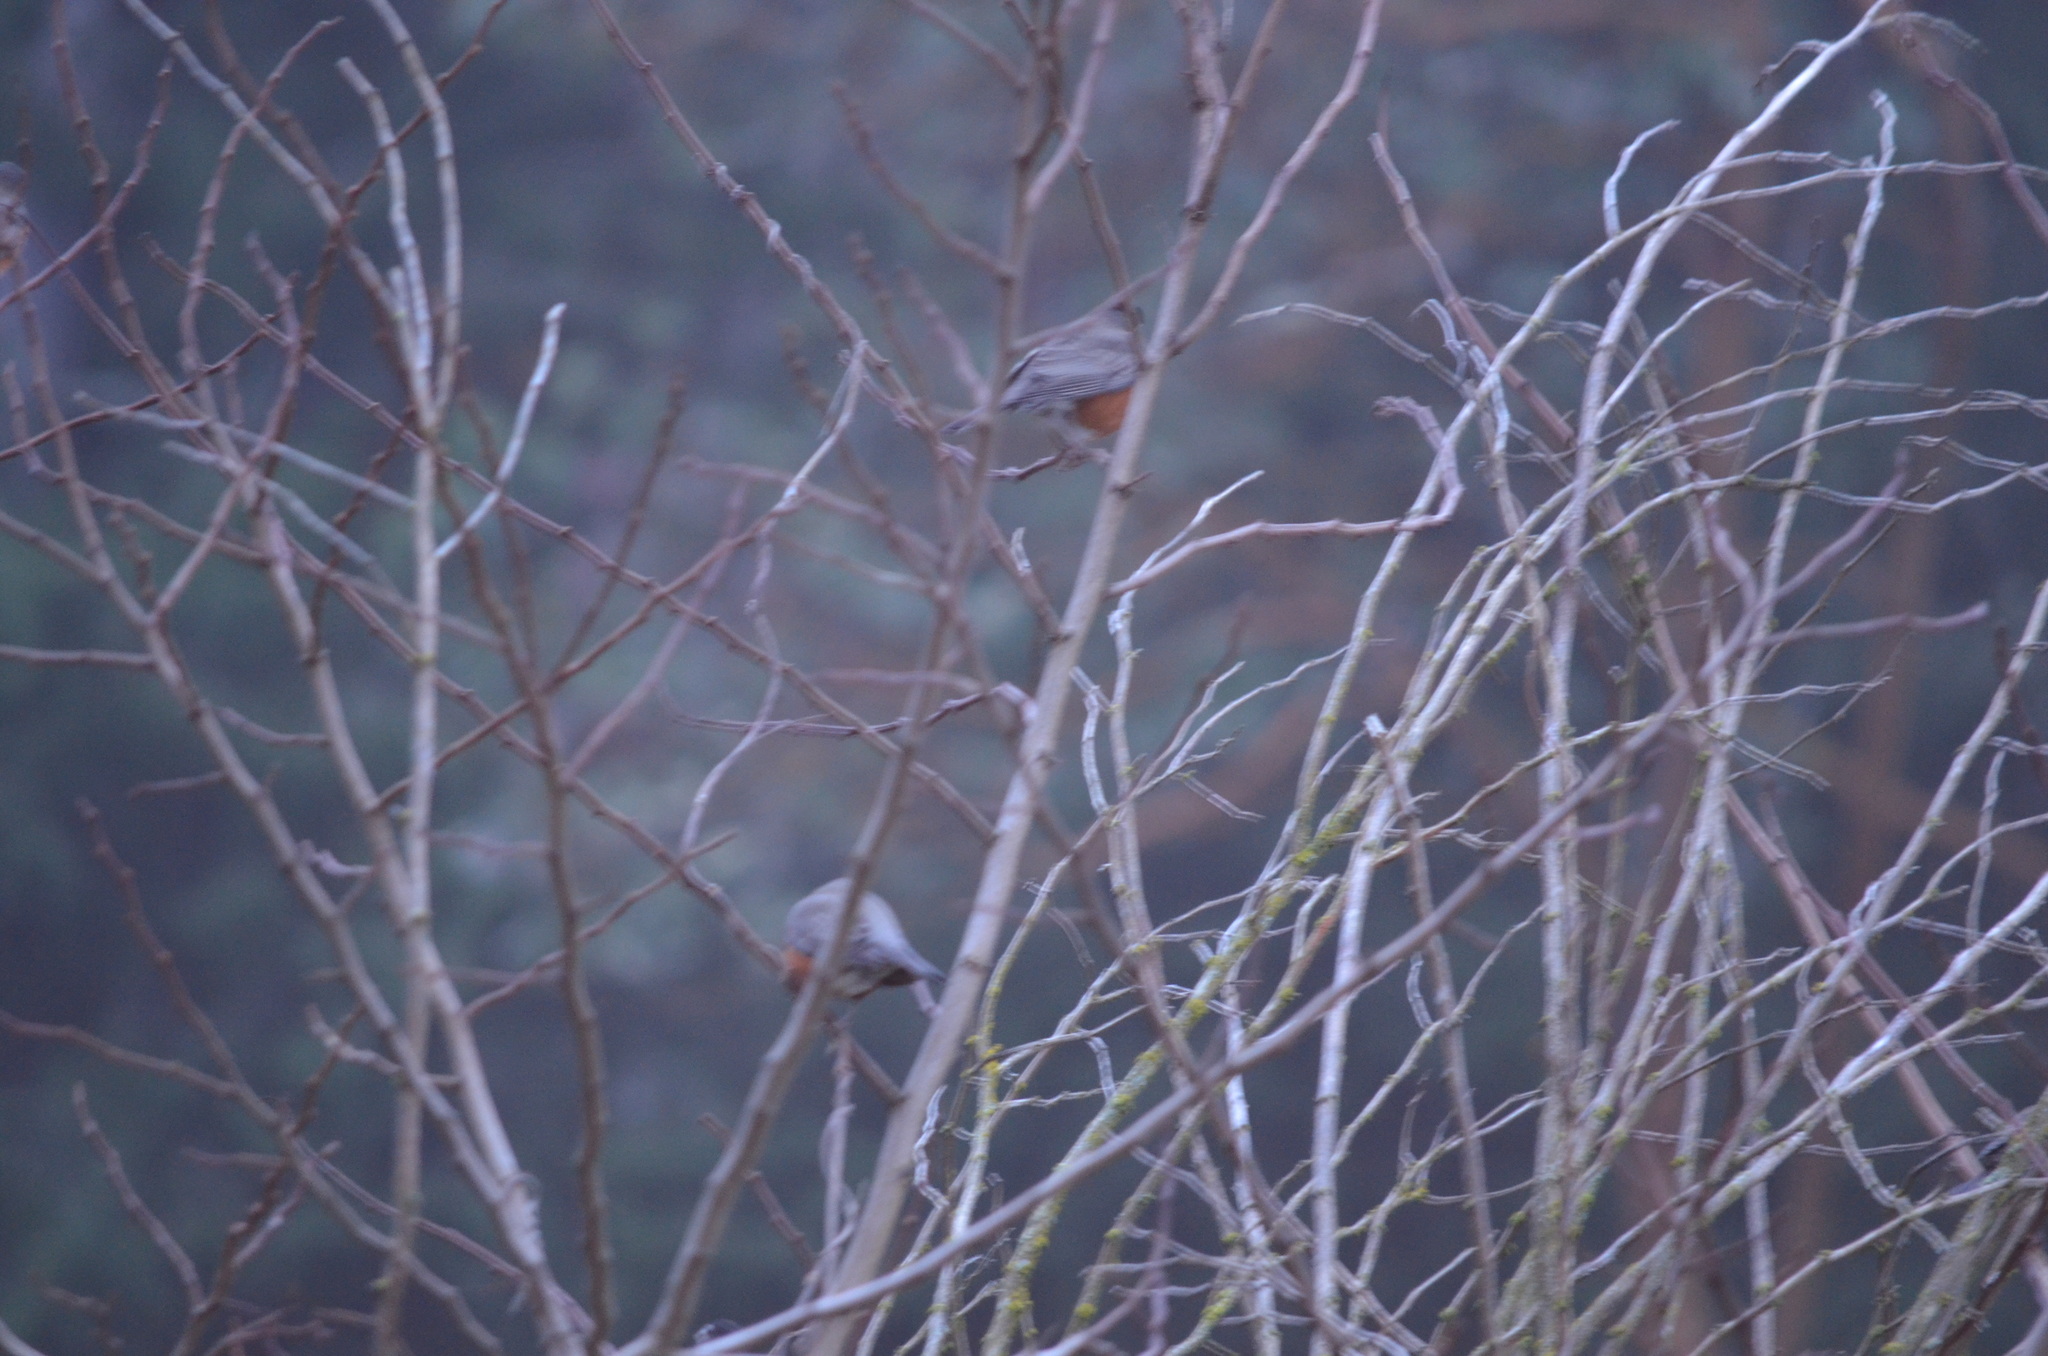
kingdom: Animalia
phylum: Chordata
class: Aves
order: Passeriformes
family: Turdidae
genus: Turdus
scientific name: Turdus migratorius
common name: American robin
